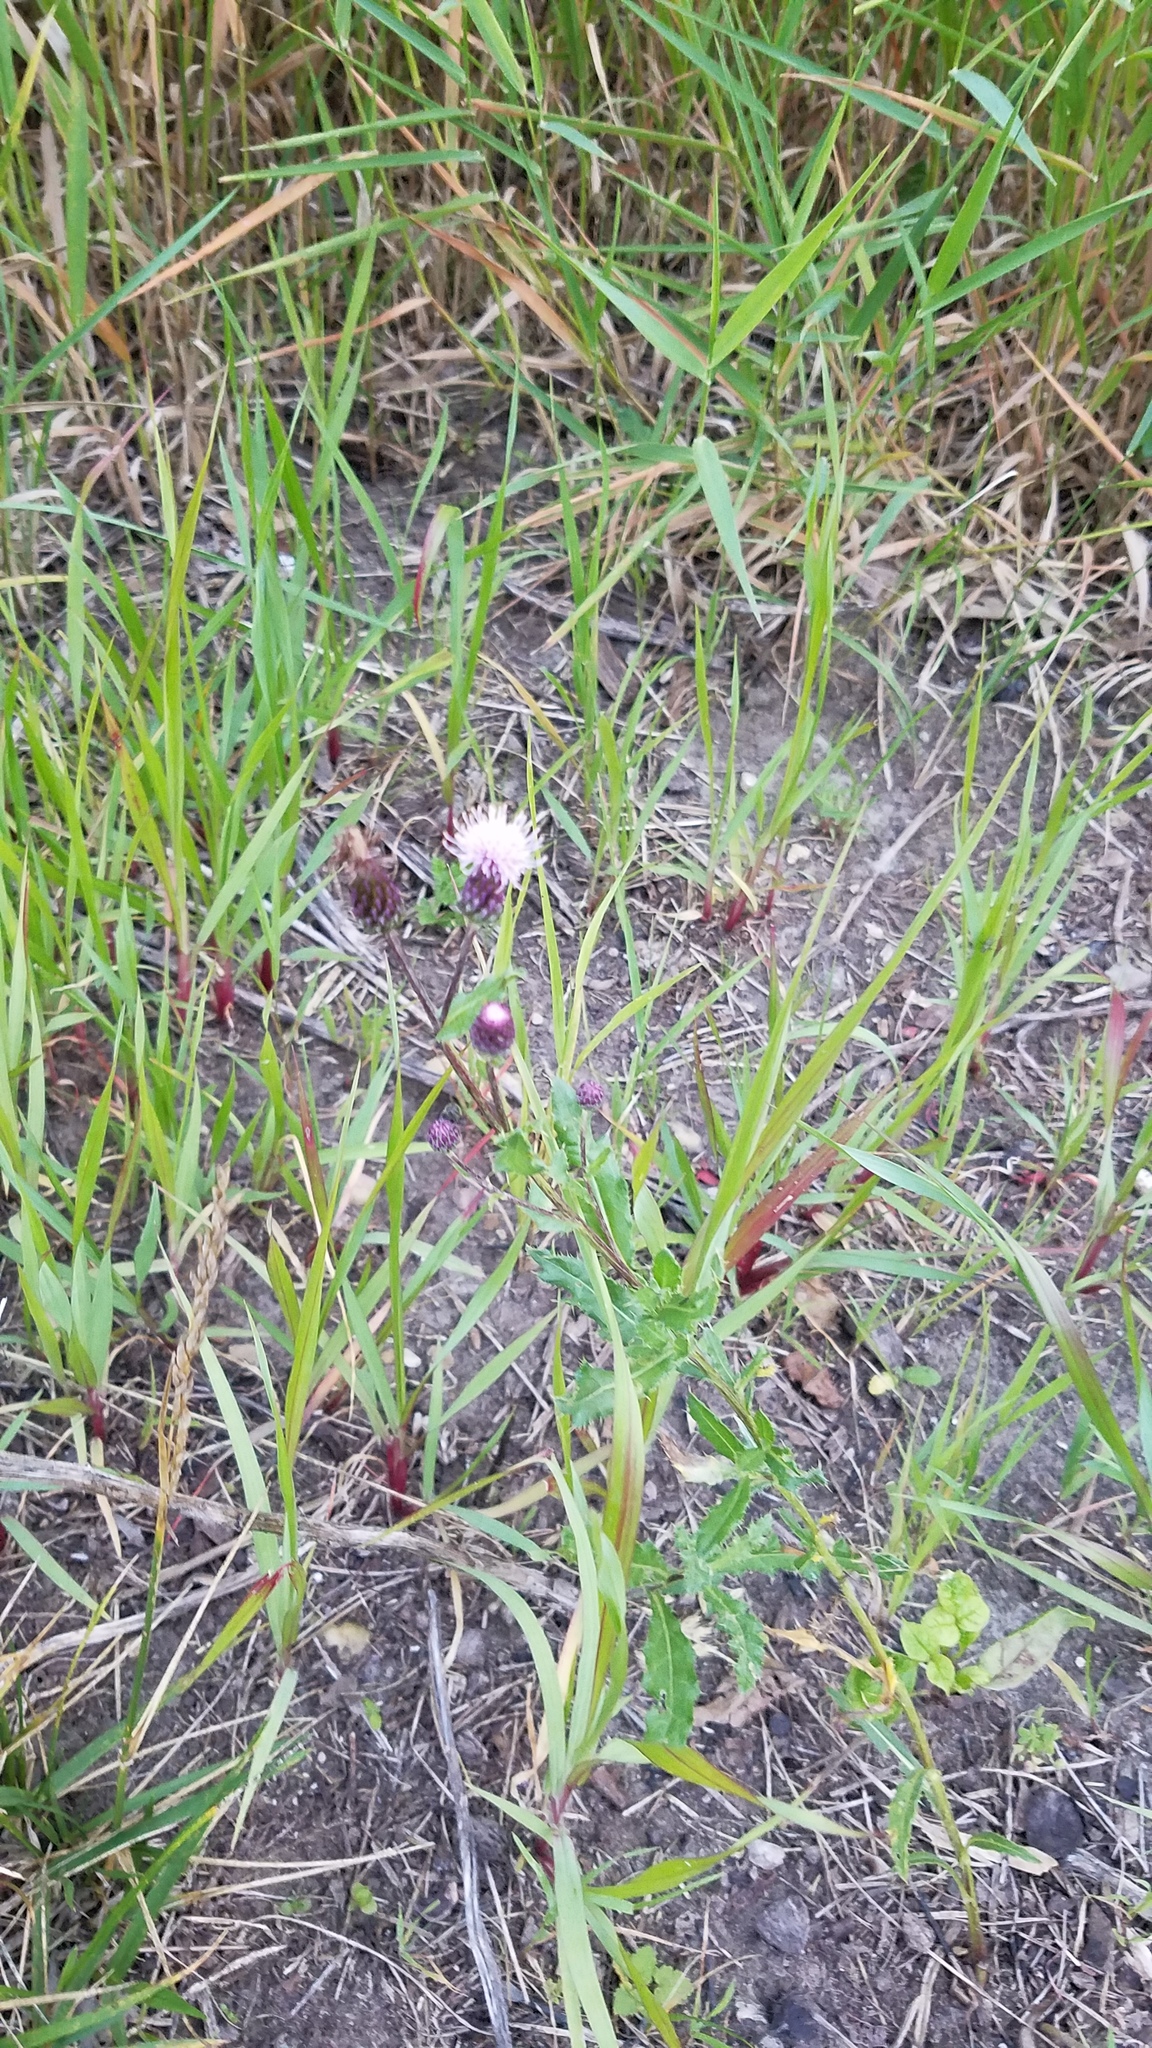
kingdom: Plantae
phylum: Tracheophyta
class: Magnoliopsida
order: Asterales
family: Asteraceae
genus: Cirsium
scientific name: Cirsium arvense
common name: Creeping thistle
